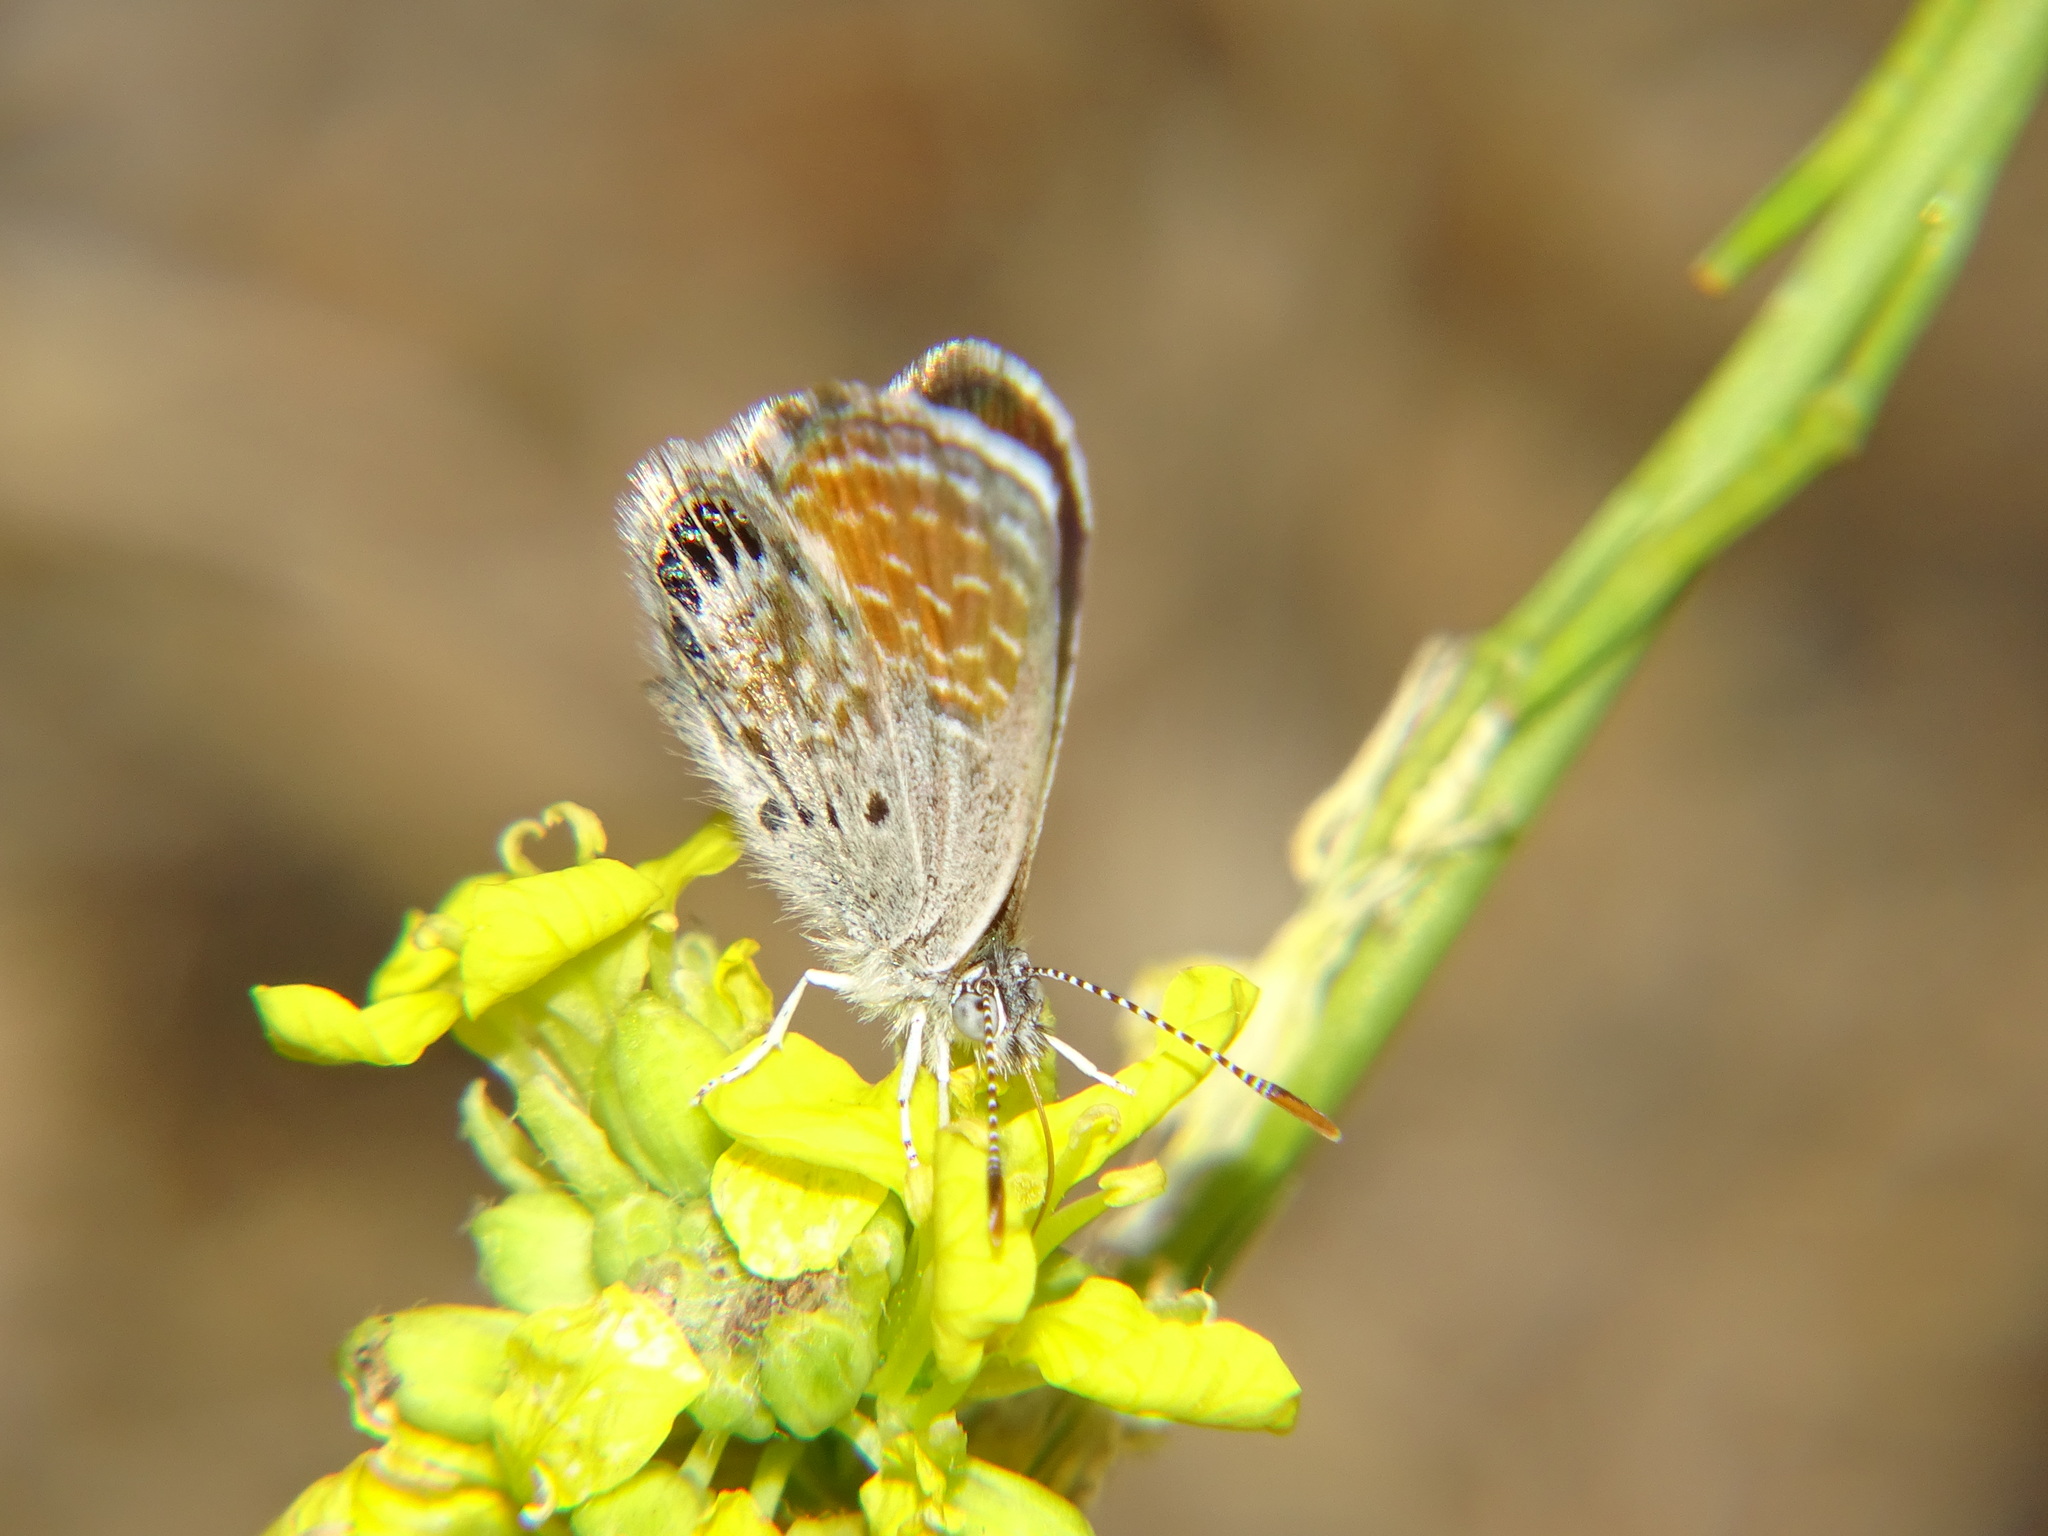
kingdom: Animalia
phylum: Arthropoda
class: Insecta
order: Lepidoptera
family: Lycaenidae
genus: Brephidium
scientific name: Brephidium exilis
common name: Pygmy blue
